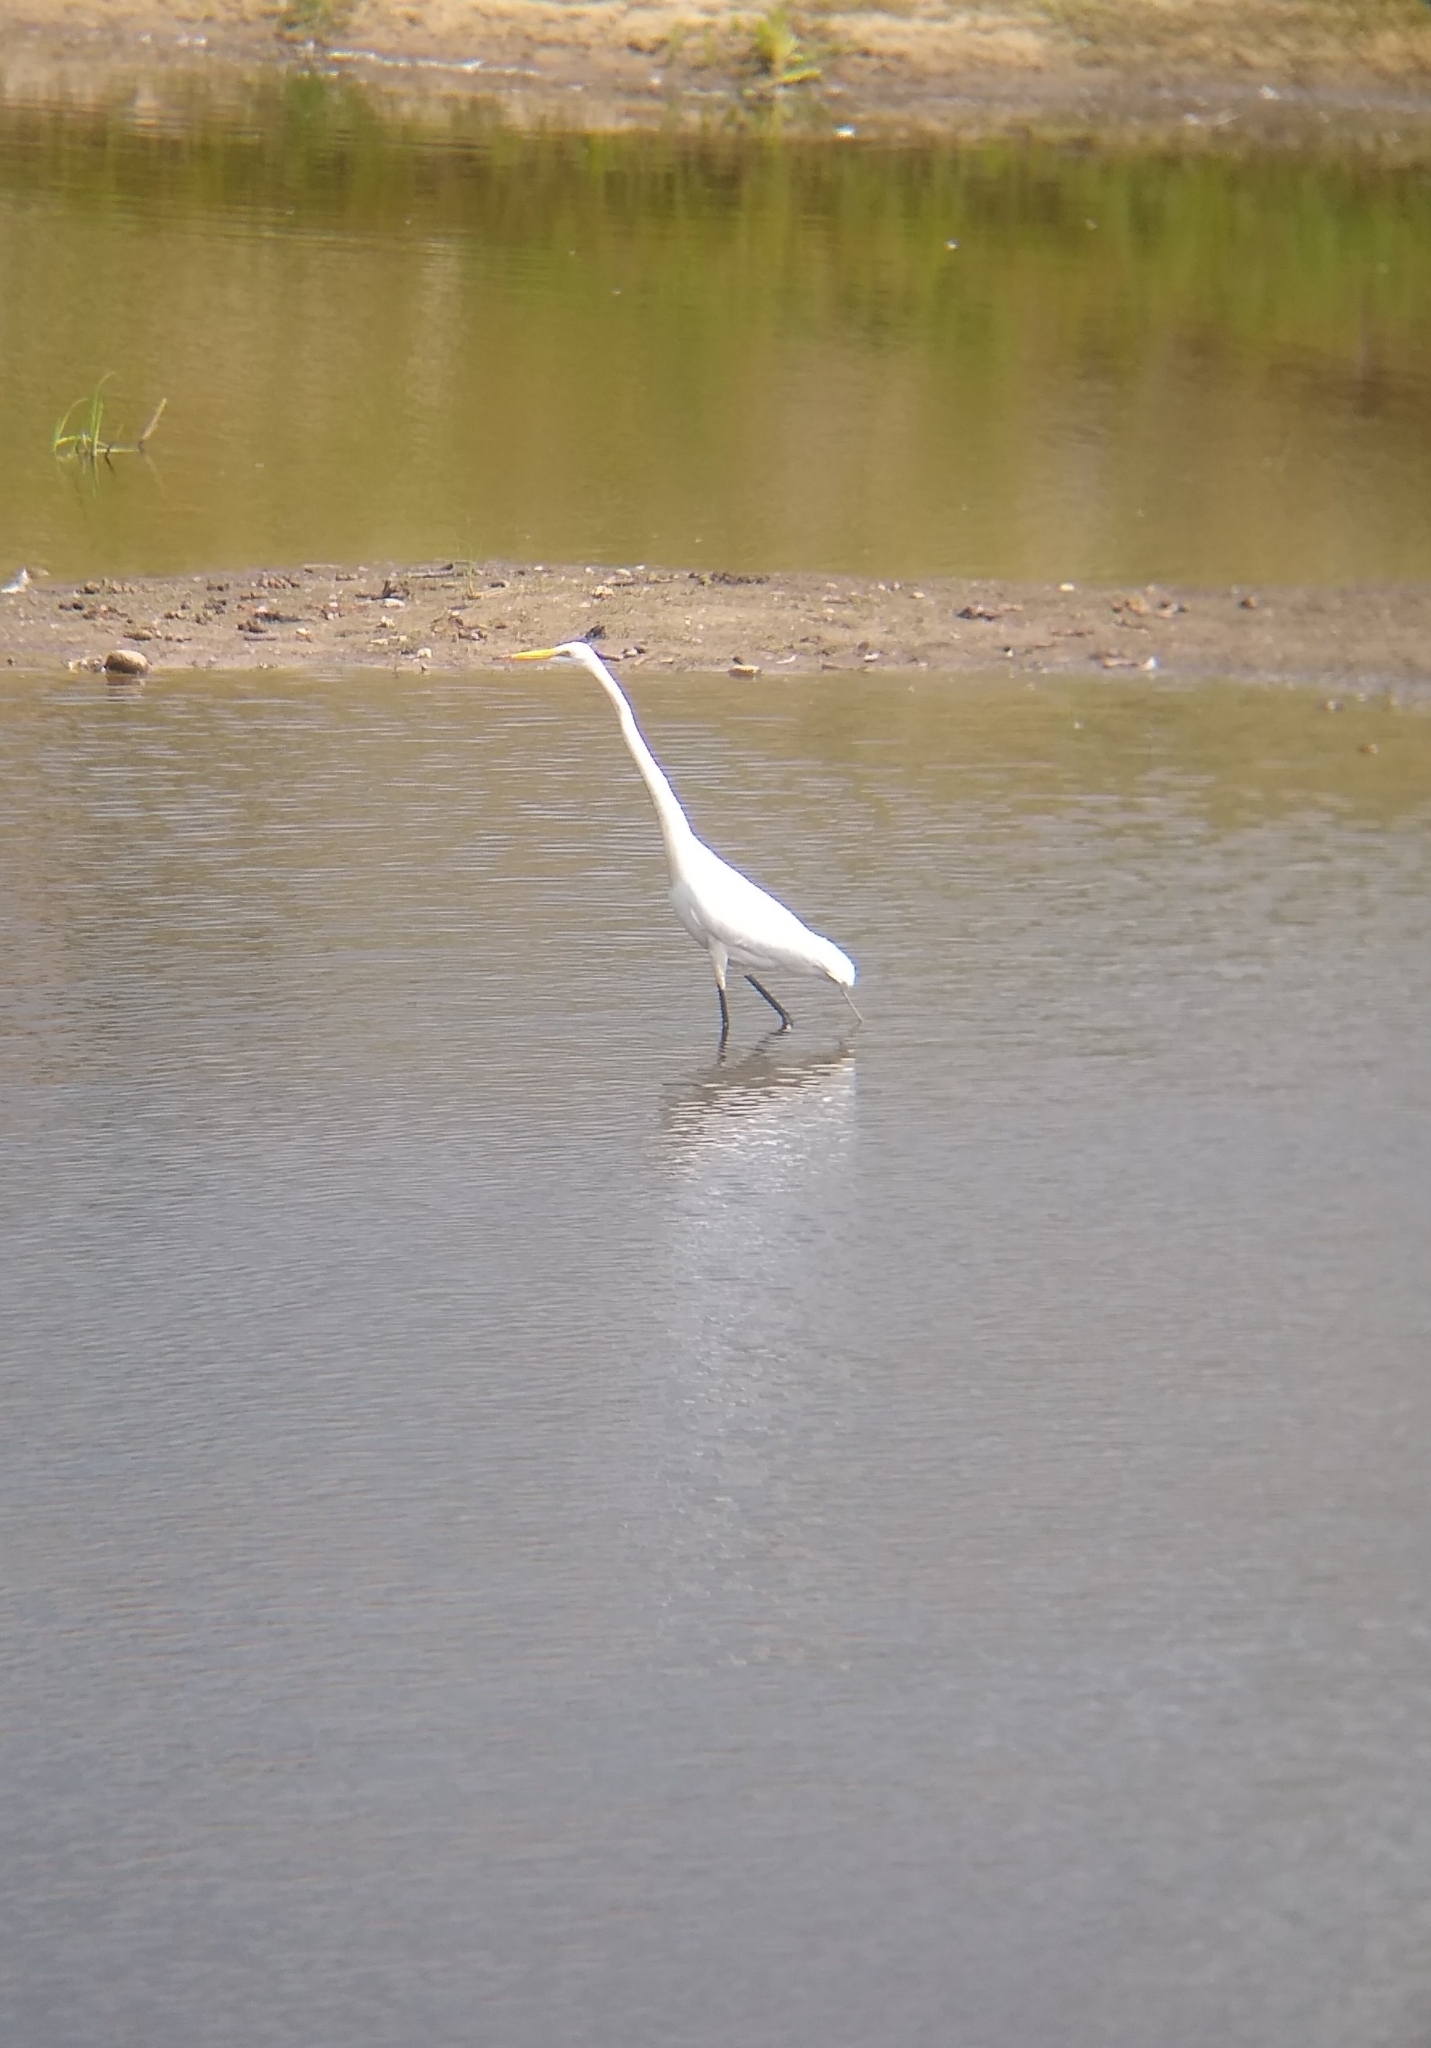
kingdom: Animalia
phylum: Chordata
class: Aves
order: Pelecaniformes
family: Ardeidae
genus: Ardea
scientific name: Ardea alba
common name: Great egret
